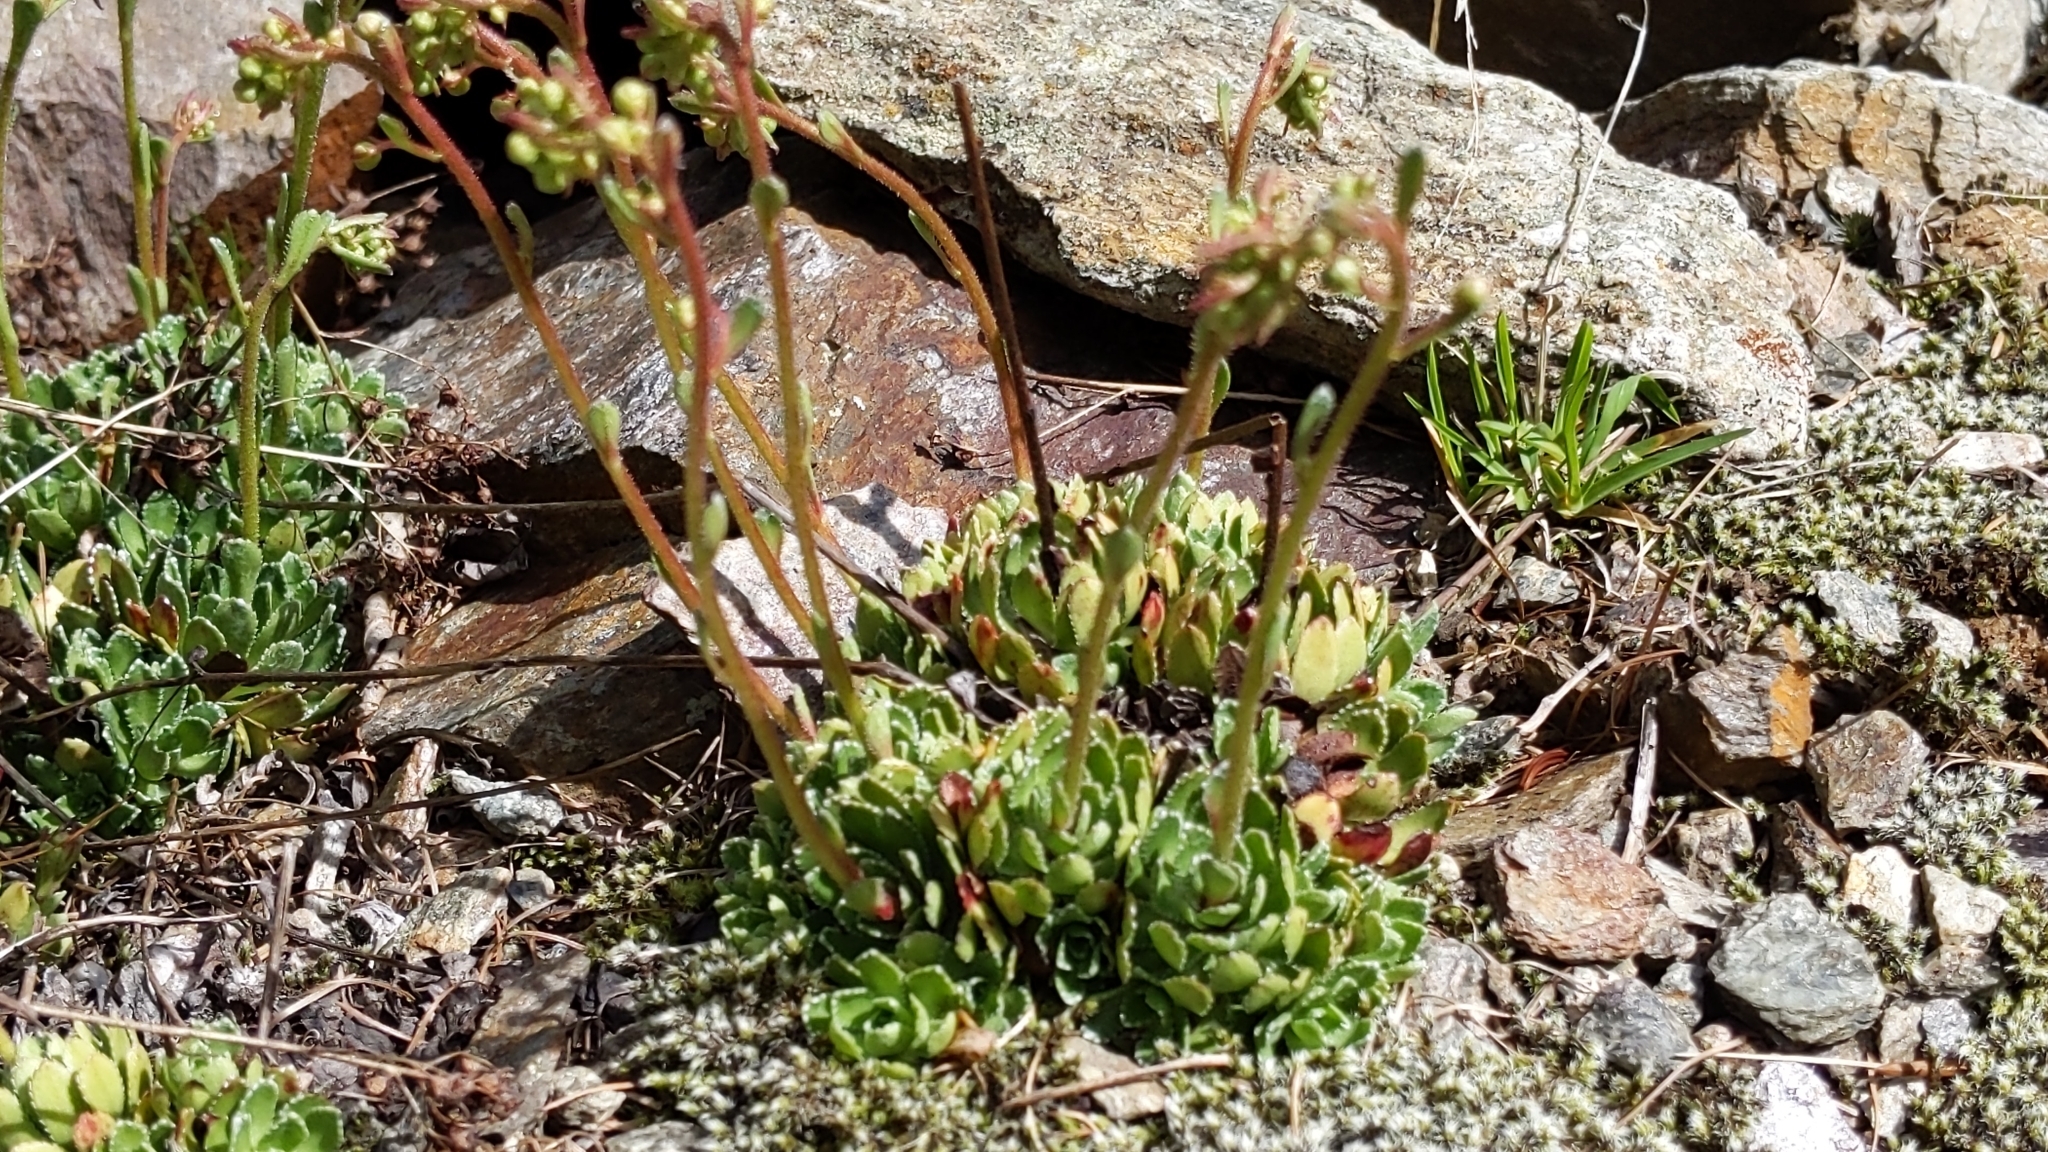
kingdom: Plantae
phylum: Tracheophyta
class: Magnoliopsida
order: Saxifragales
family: Saxifragaceae
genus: Saxifraga
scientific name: Saxifraga paniculata
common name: Livelong saxifrage
